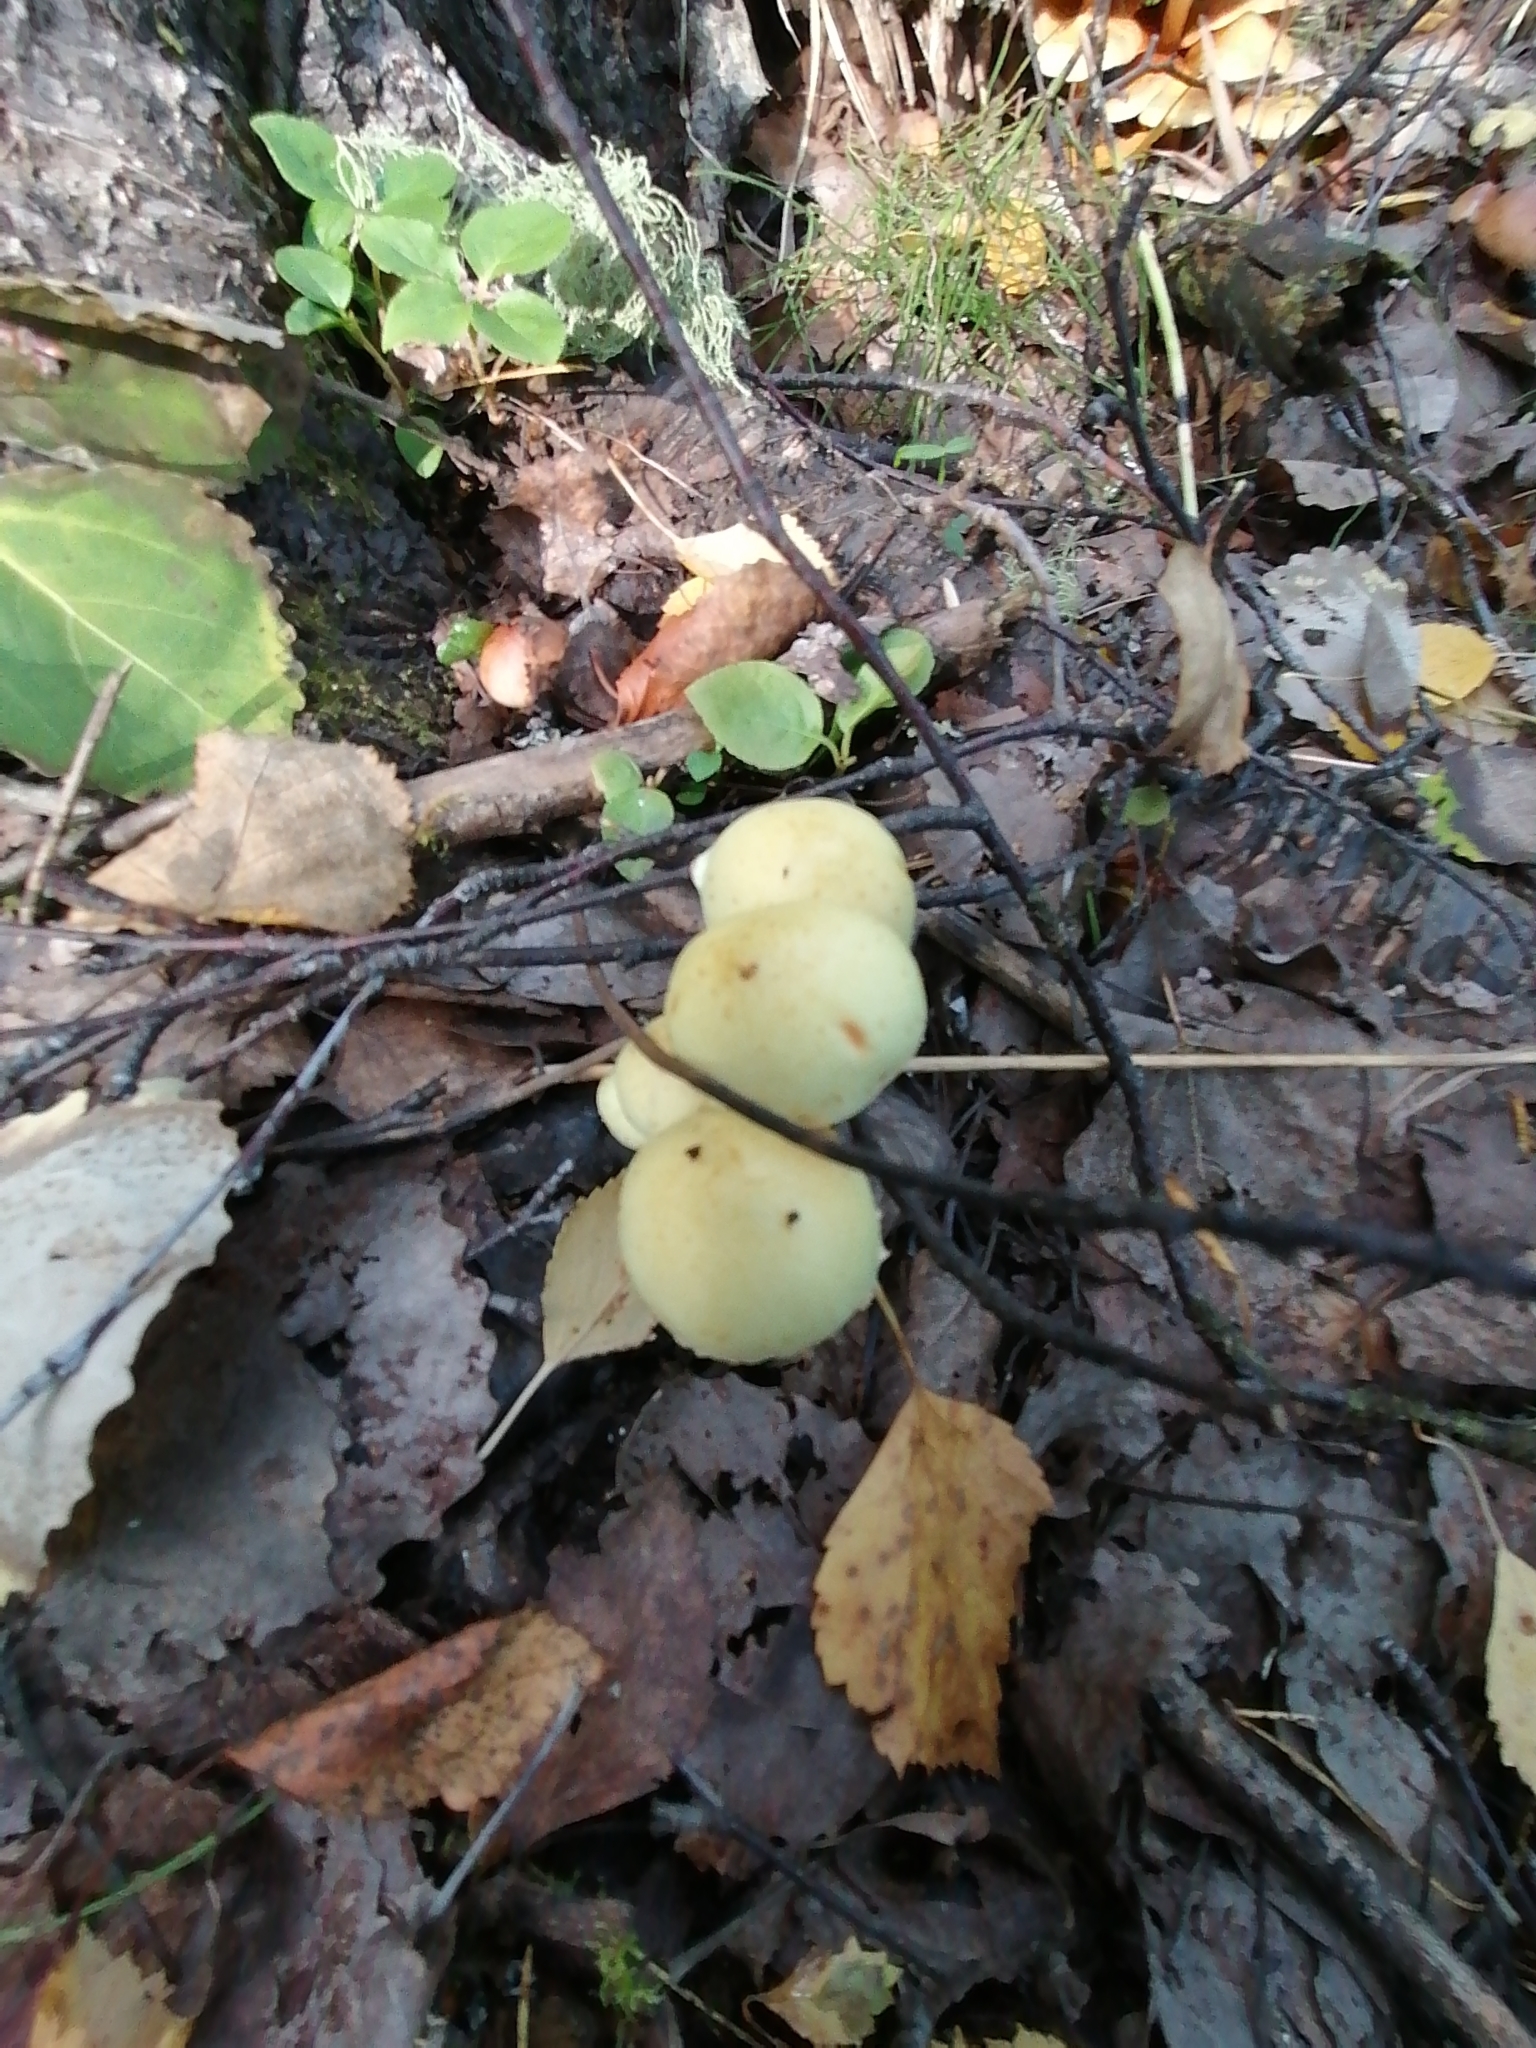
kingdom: Fungi
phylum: Basidiomycota
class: Agaricomycetes
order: Agaricales
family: Hymenogastraceae
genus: Flammula
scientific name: Flammula alnicola
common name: Alder scalycap
